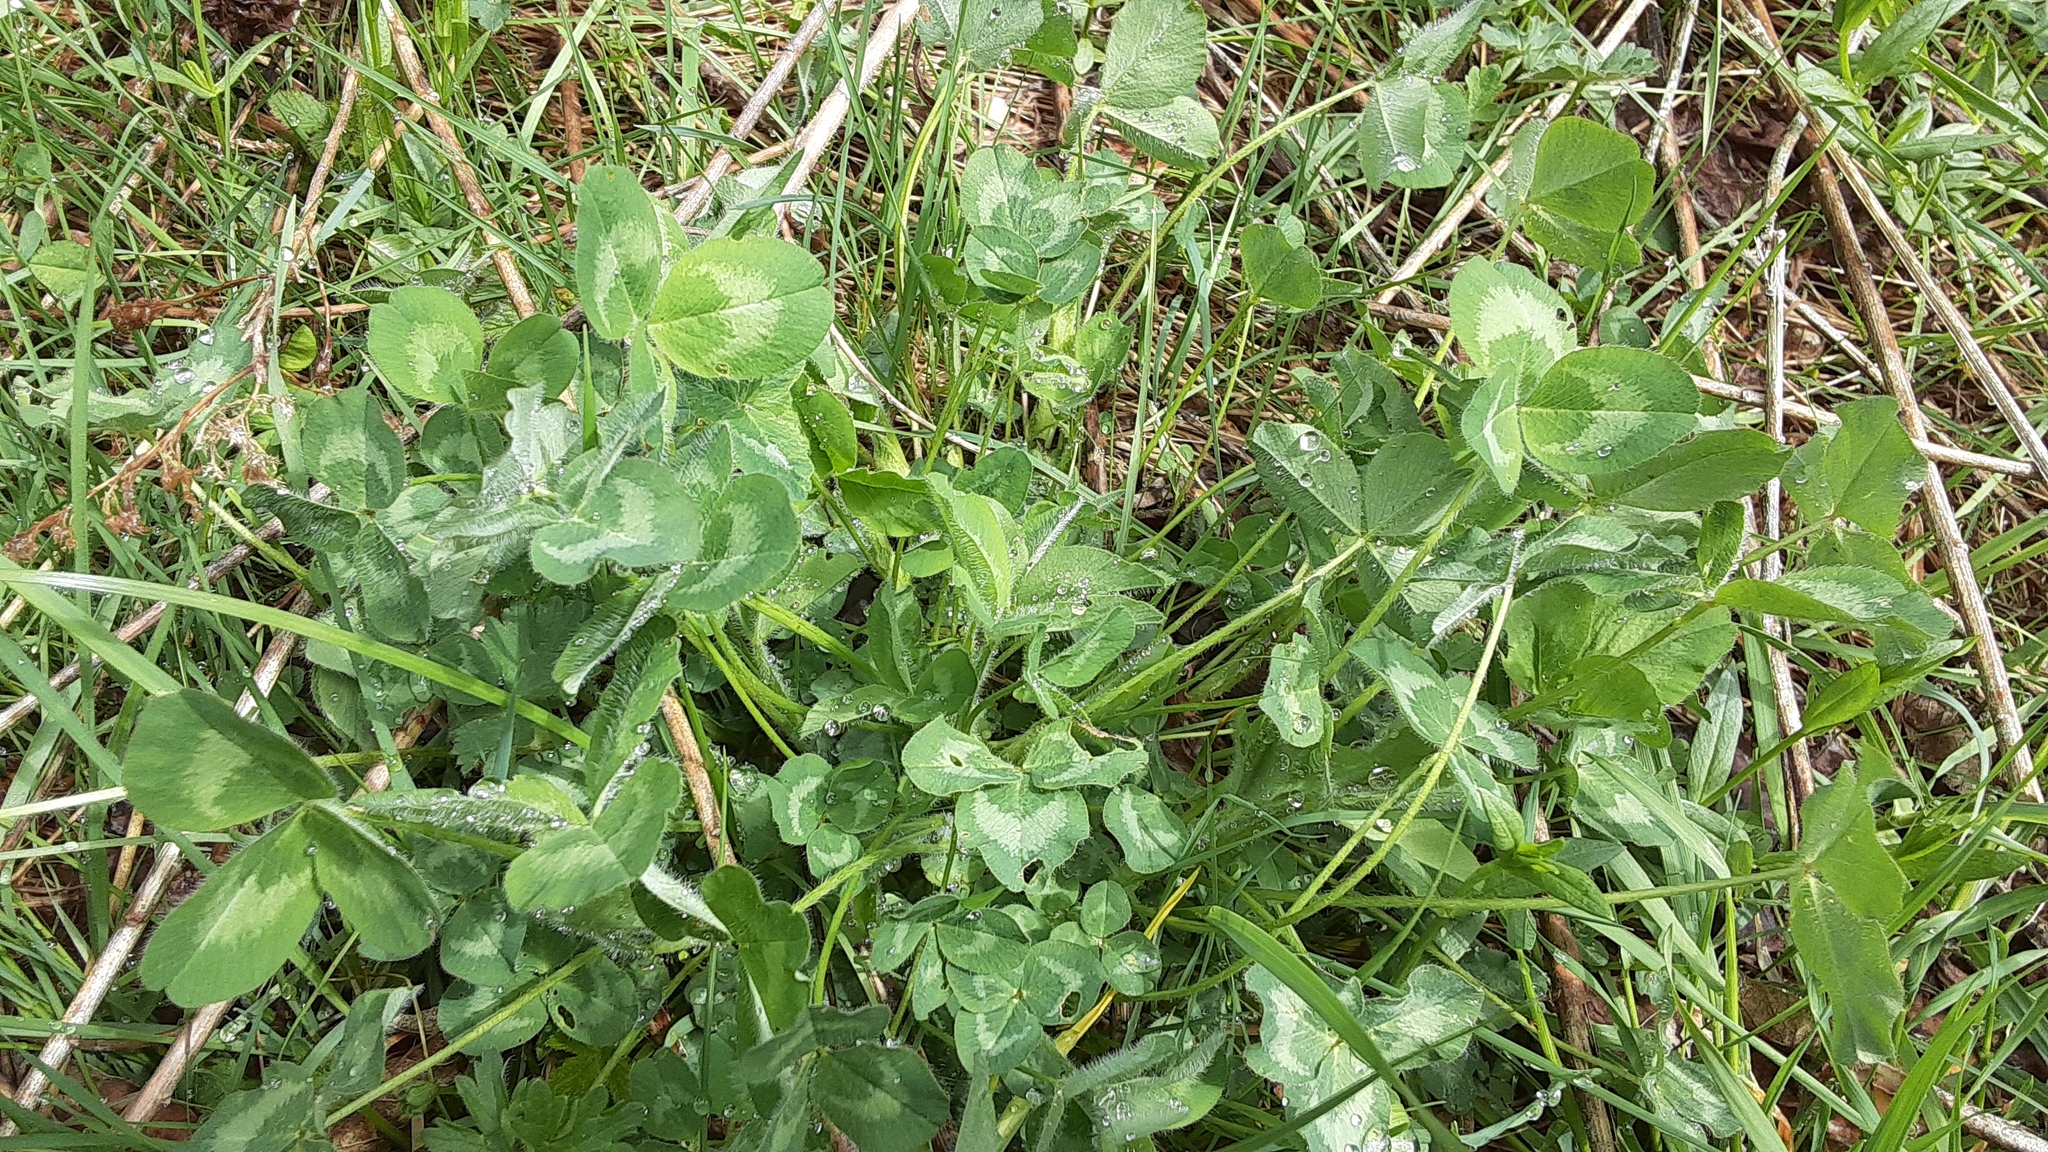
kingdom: Plantae
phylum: Tracheophyta
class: Magnoliopsida
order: Fabales
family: Fabaceae
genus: Trifolium
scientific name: Trifolium pratense
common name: Red clover
